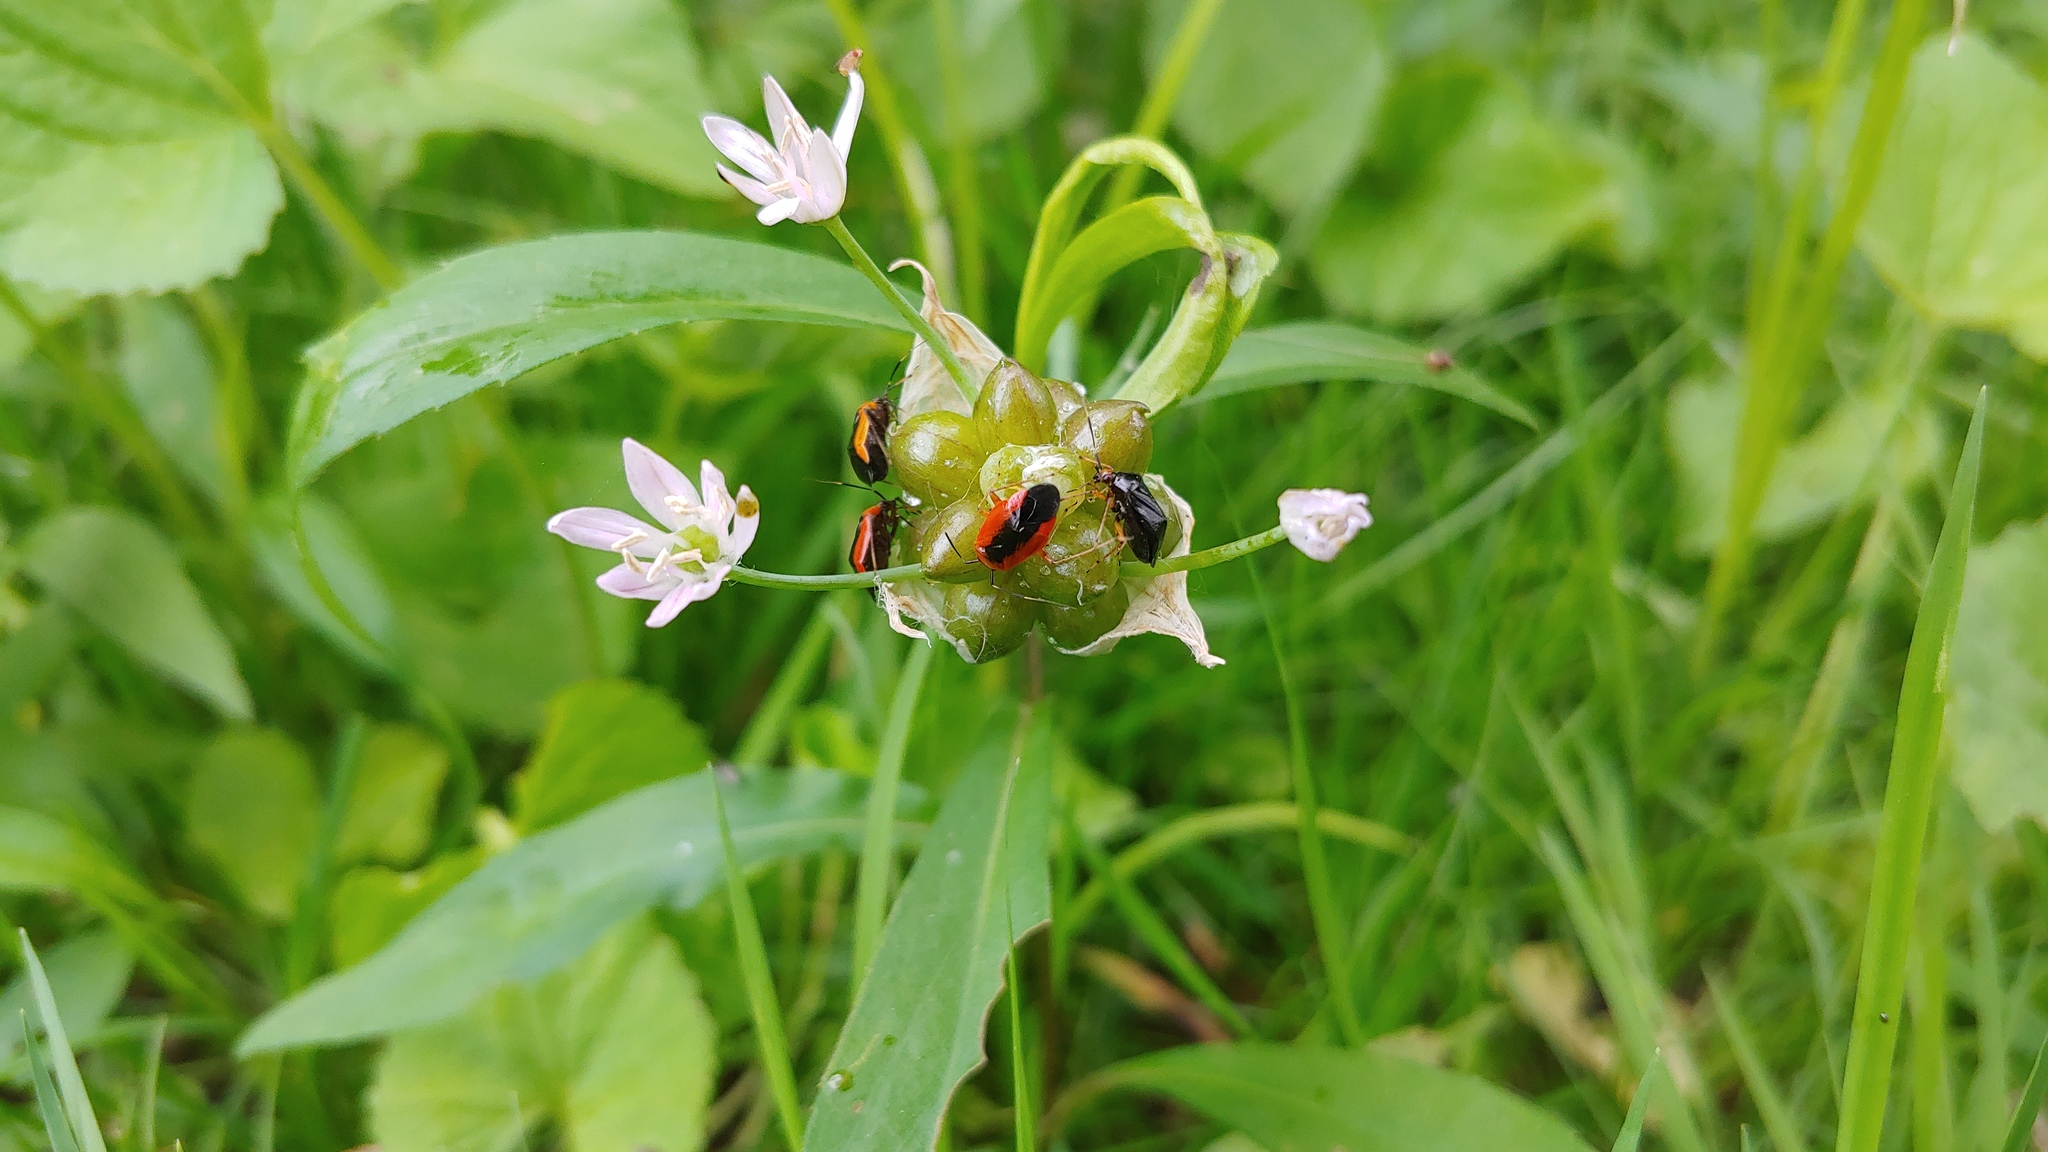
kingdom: Animalia
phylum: Arthropoda
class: Insecta
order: Hemiptera
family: Miridae
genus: Metriorrhynchomiris
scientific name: Metriorrhynchomiris dislocatus
